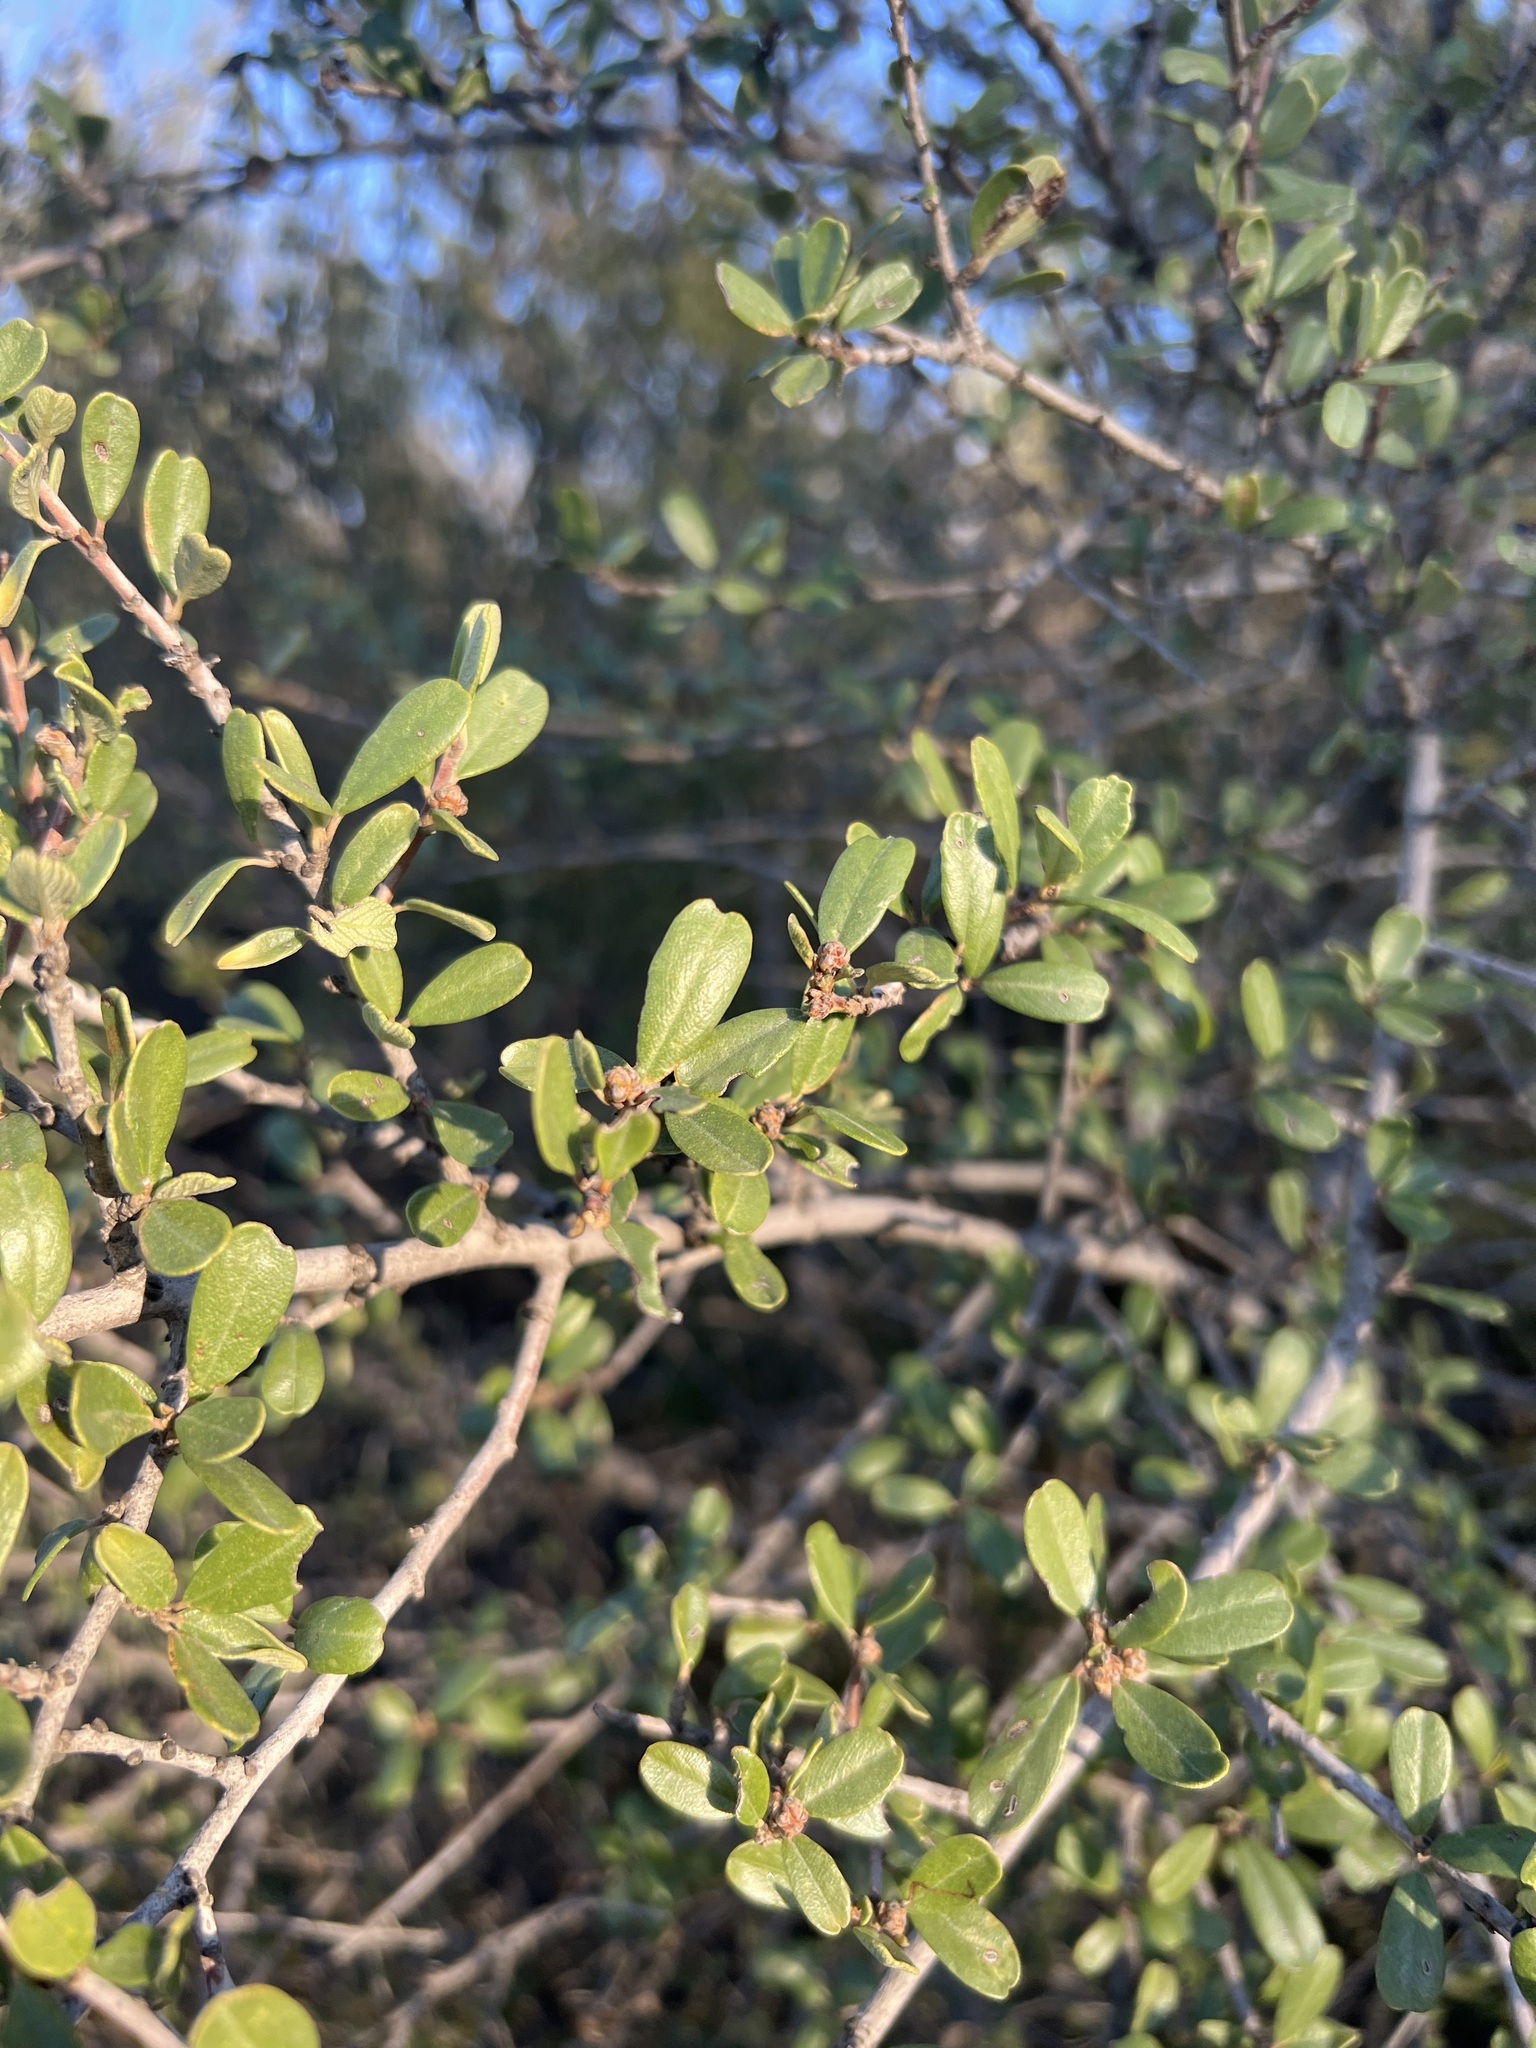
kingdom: Plantae
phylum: Tracheophyta
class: Magnoliopsida
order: Rosales
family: Rhamnaceae
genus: Ceanothus
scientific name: Ceanothus megacarpus
